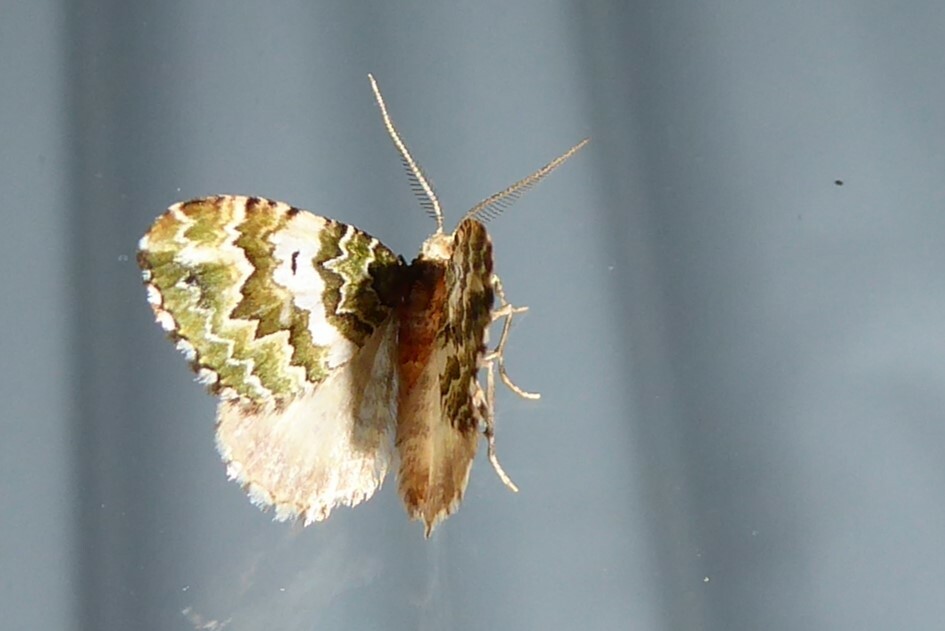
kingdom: Animalia
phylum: Arthropoda
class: Insecta
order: Lepidoptera
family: Geometridae
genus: Asaphodes
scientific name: Asaphodes beata
